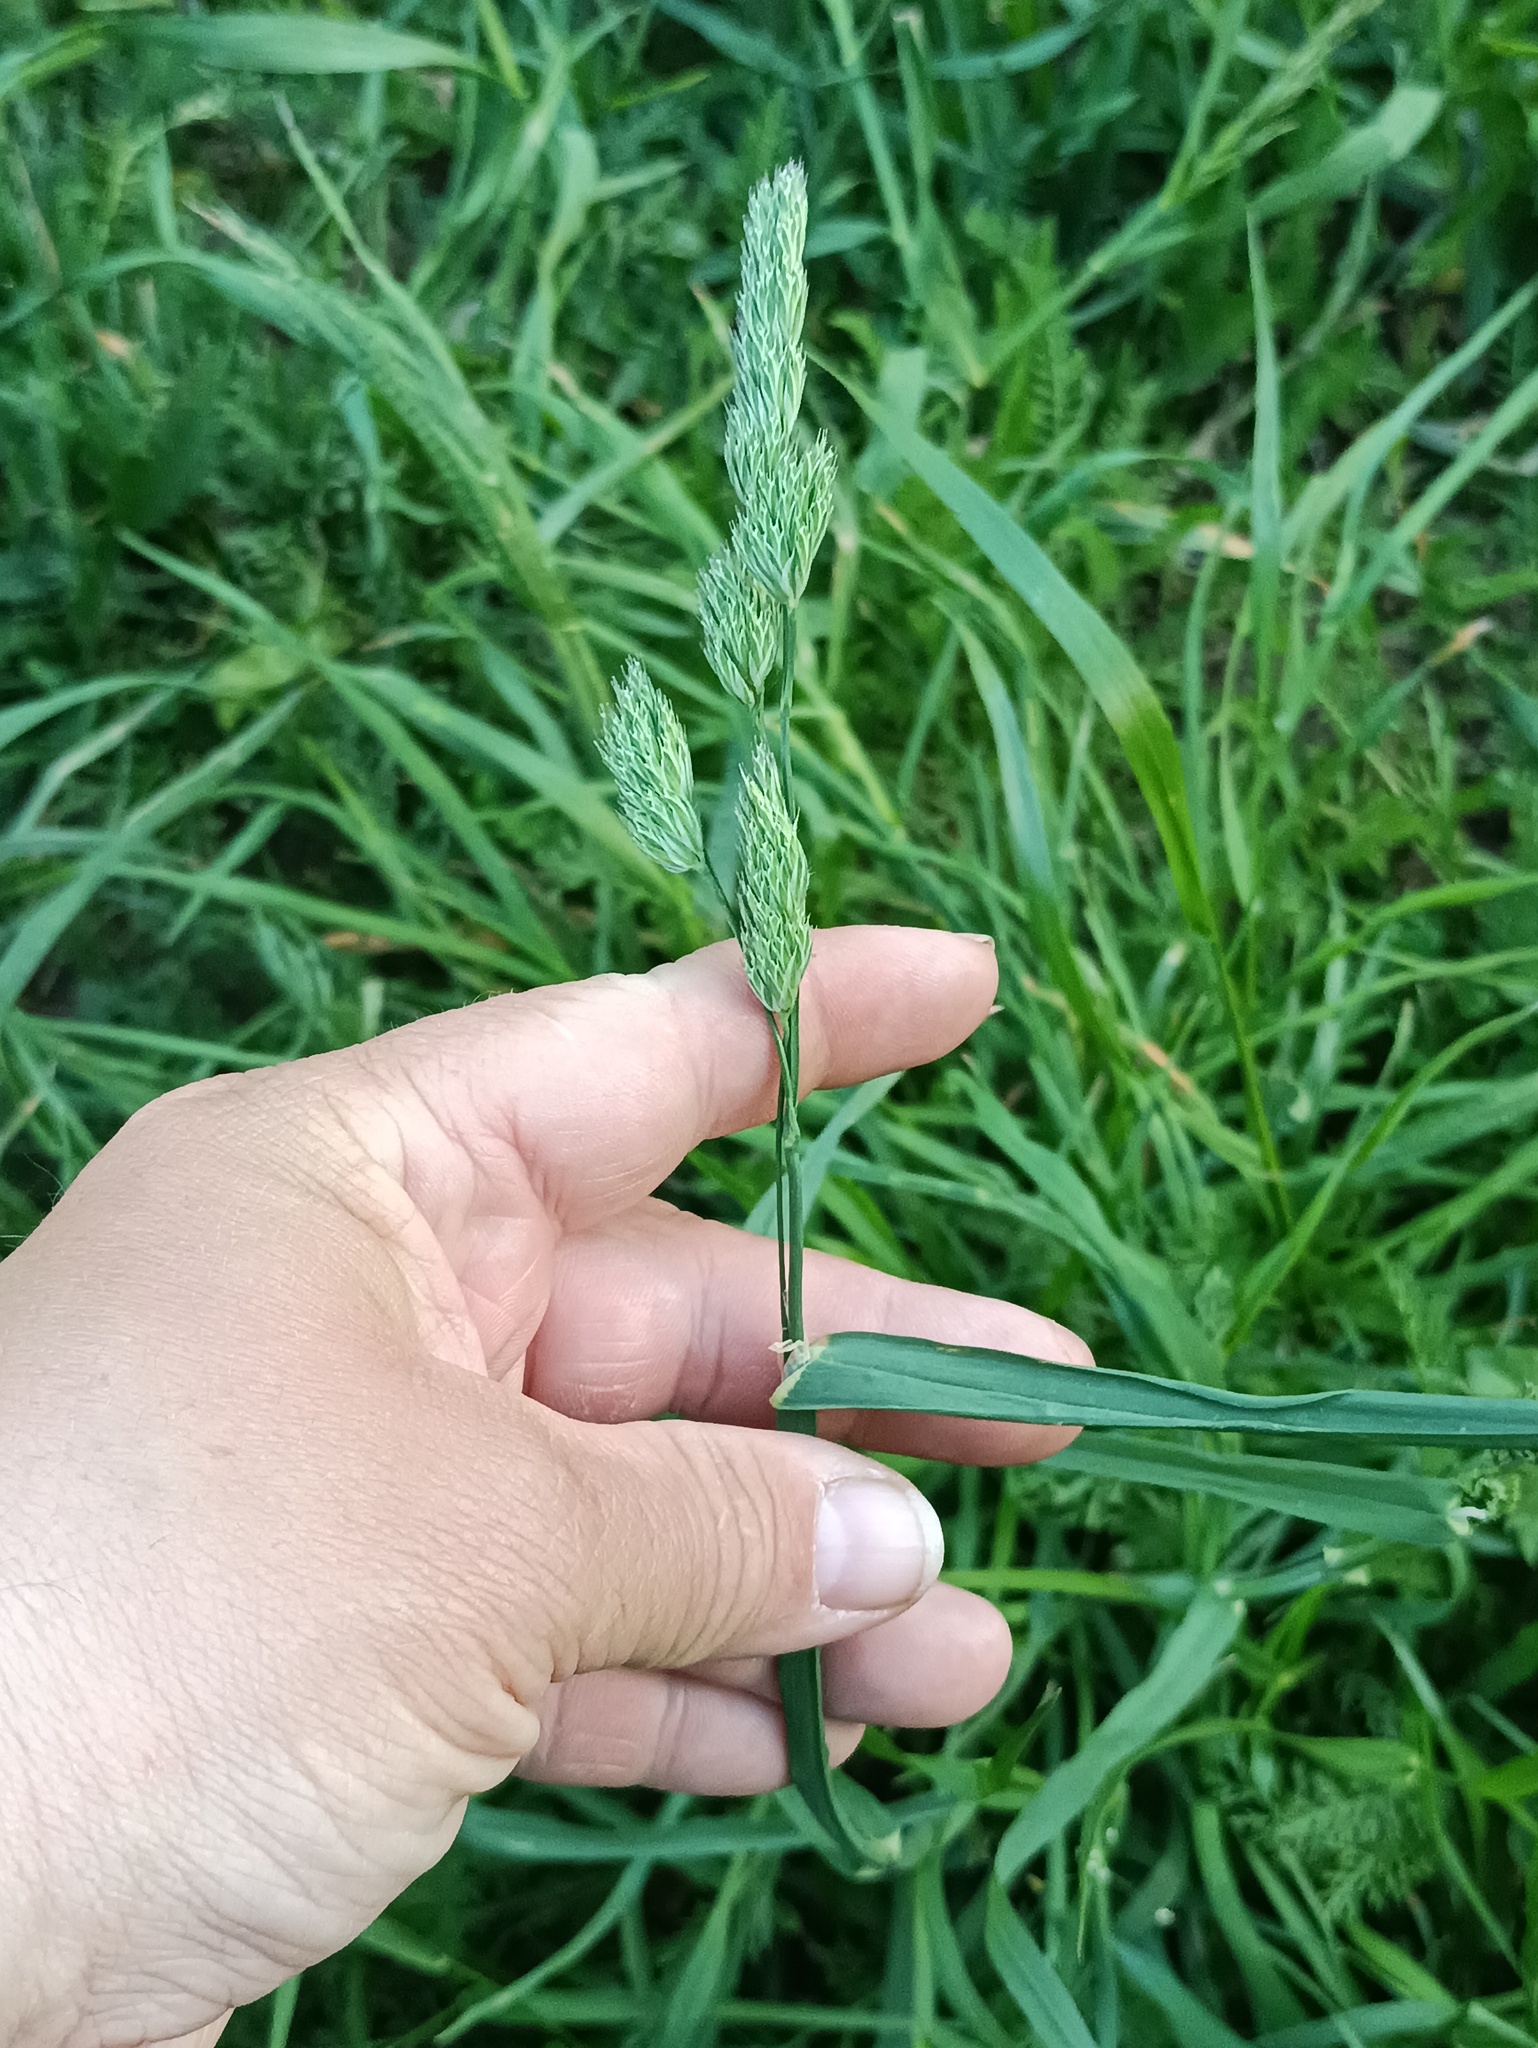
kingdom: Plantae
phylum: Tracheophyta
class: Liliopsida
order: Poales
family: Poaceae
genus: Dactylis
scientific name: Dactylis glomerata
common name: Orchardgrass
